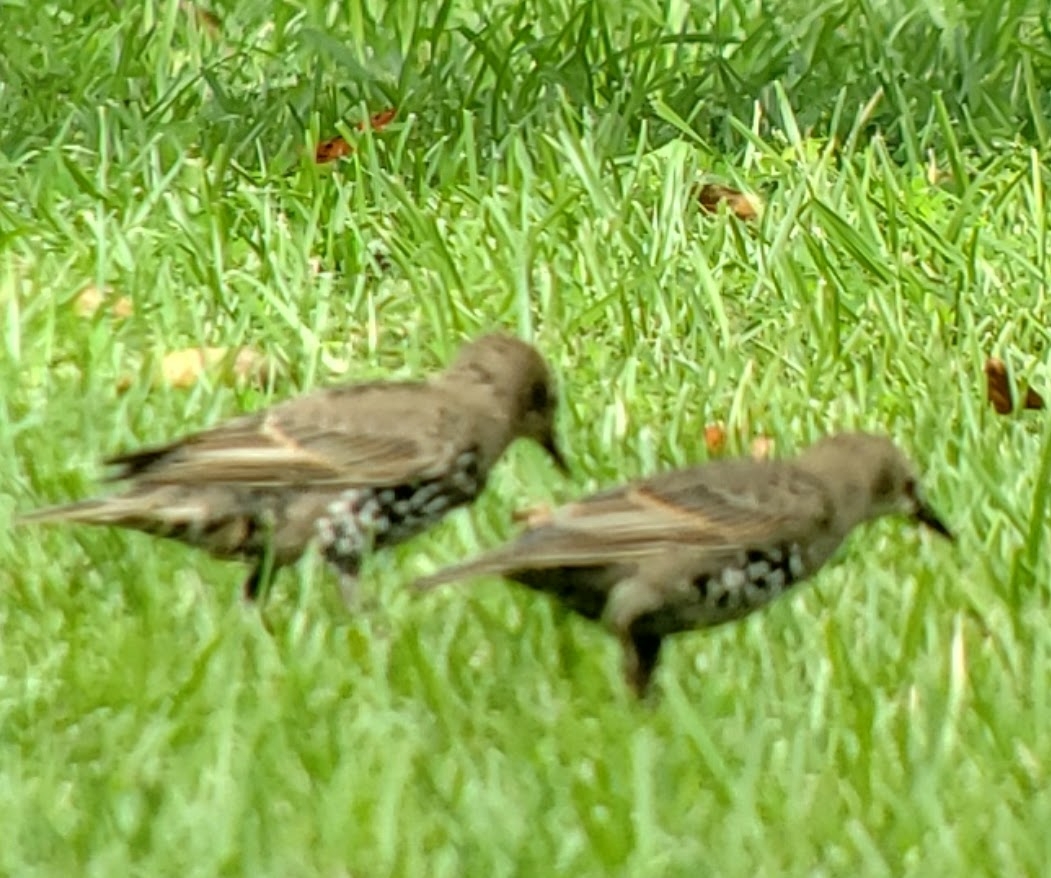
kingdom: Animalia
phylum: Chordata
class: Aves
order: Passeriformes
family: Sturnidae
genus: Sturnus
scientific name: Sturnus vulgaris
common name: Common starling
